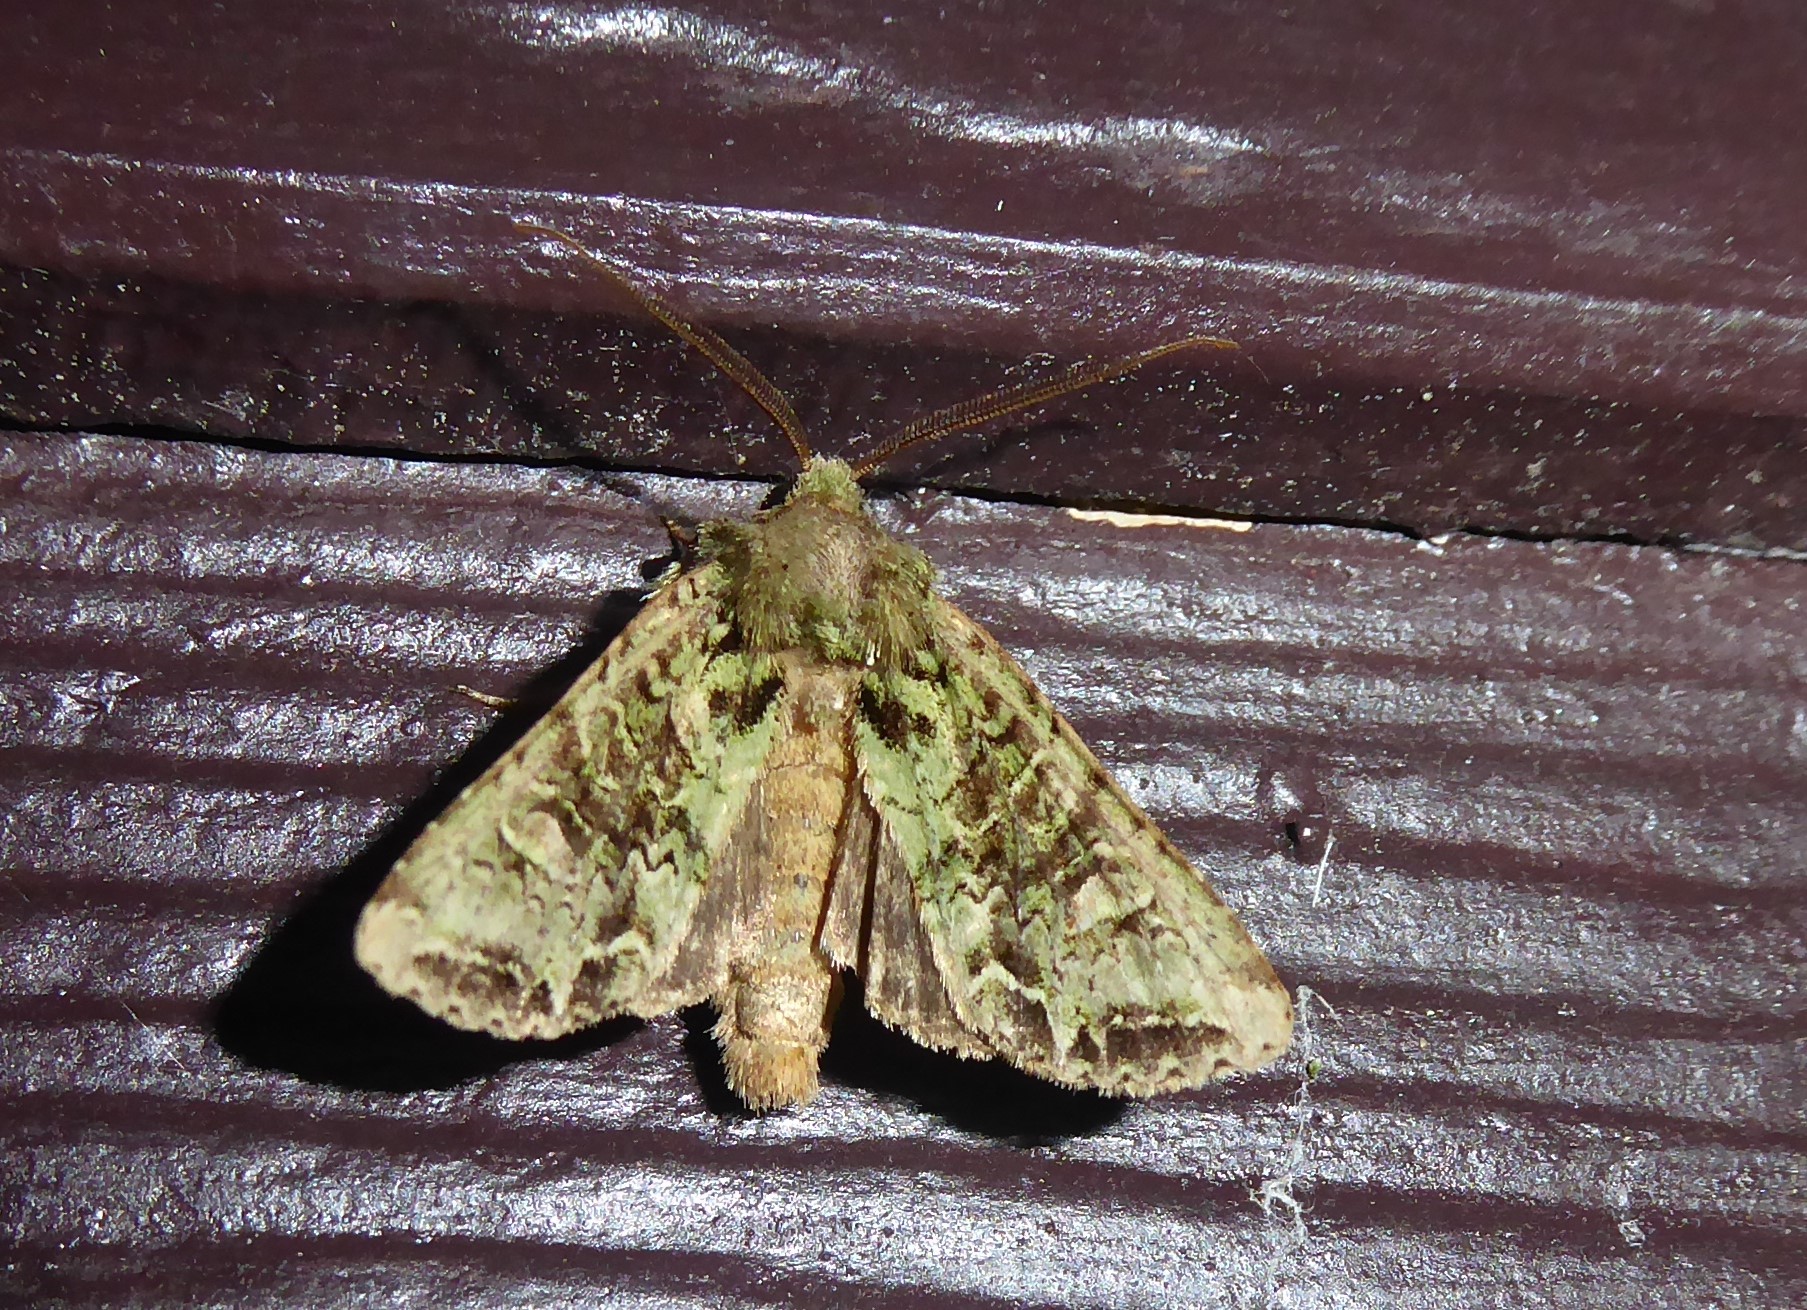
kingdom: Animalia
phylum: Arthropoda
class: Insecta
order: Lepidoptera
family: Noctuidae
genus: Ichneutica
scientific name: Ichneutica
